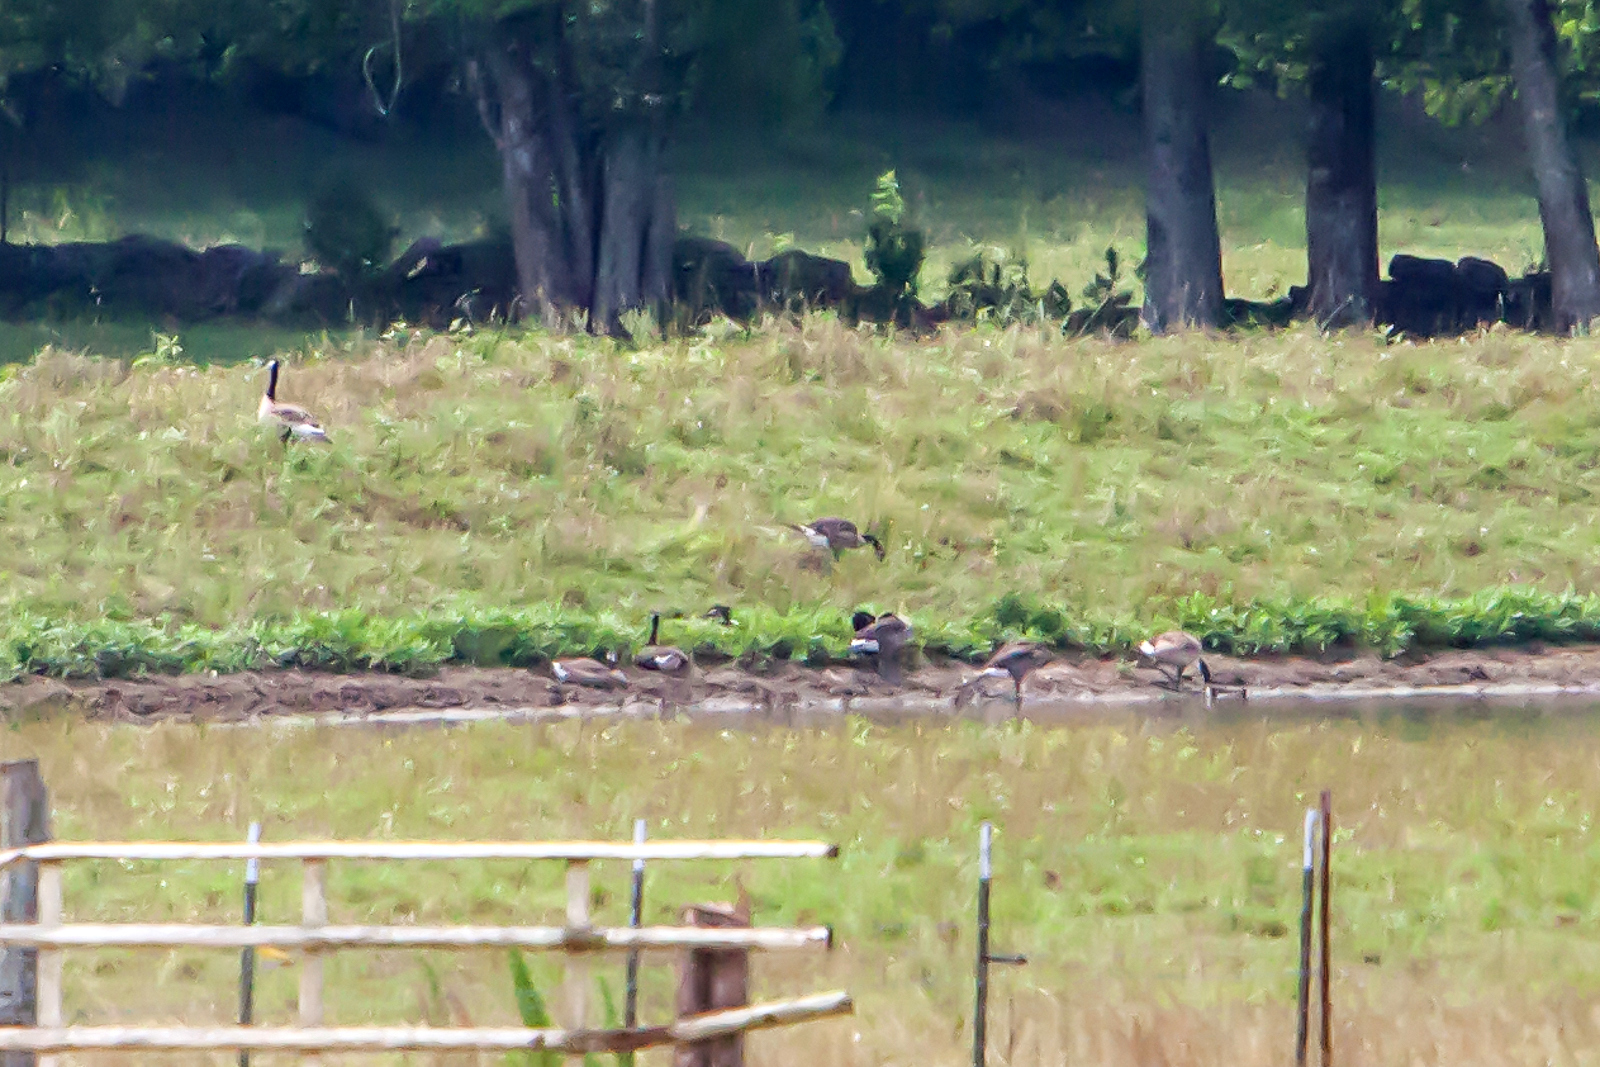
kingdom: Animalia
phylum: Chordata
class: Aves
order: Anseriformes
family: Anatidae
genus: Branta
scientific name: Branta canadensis
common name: Canada goose
